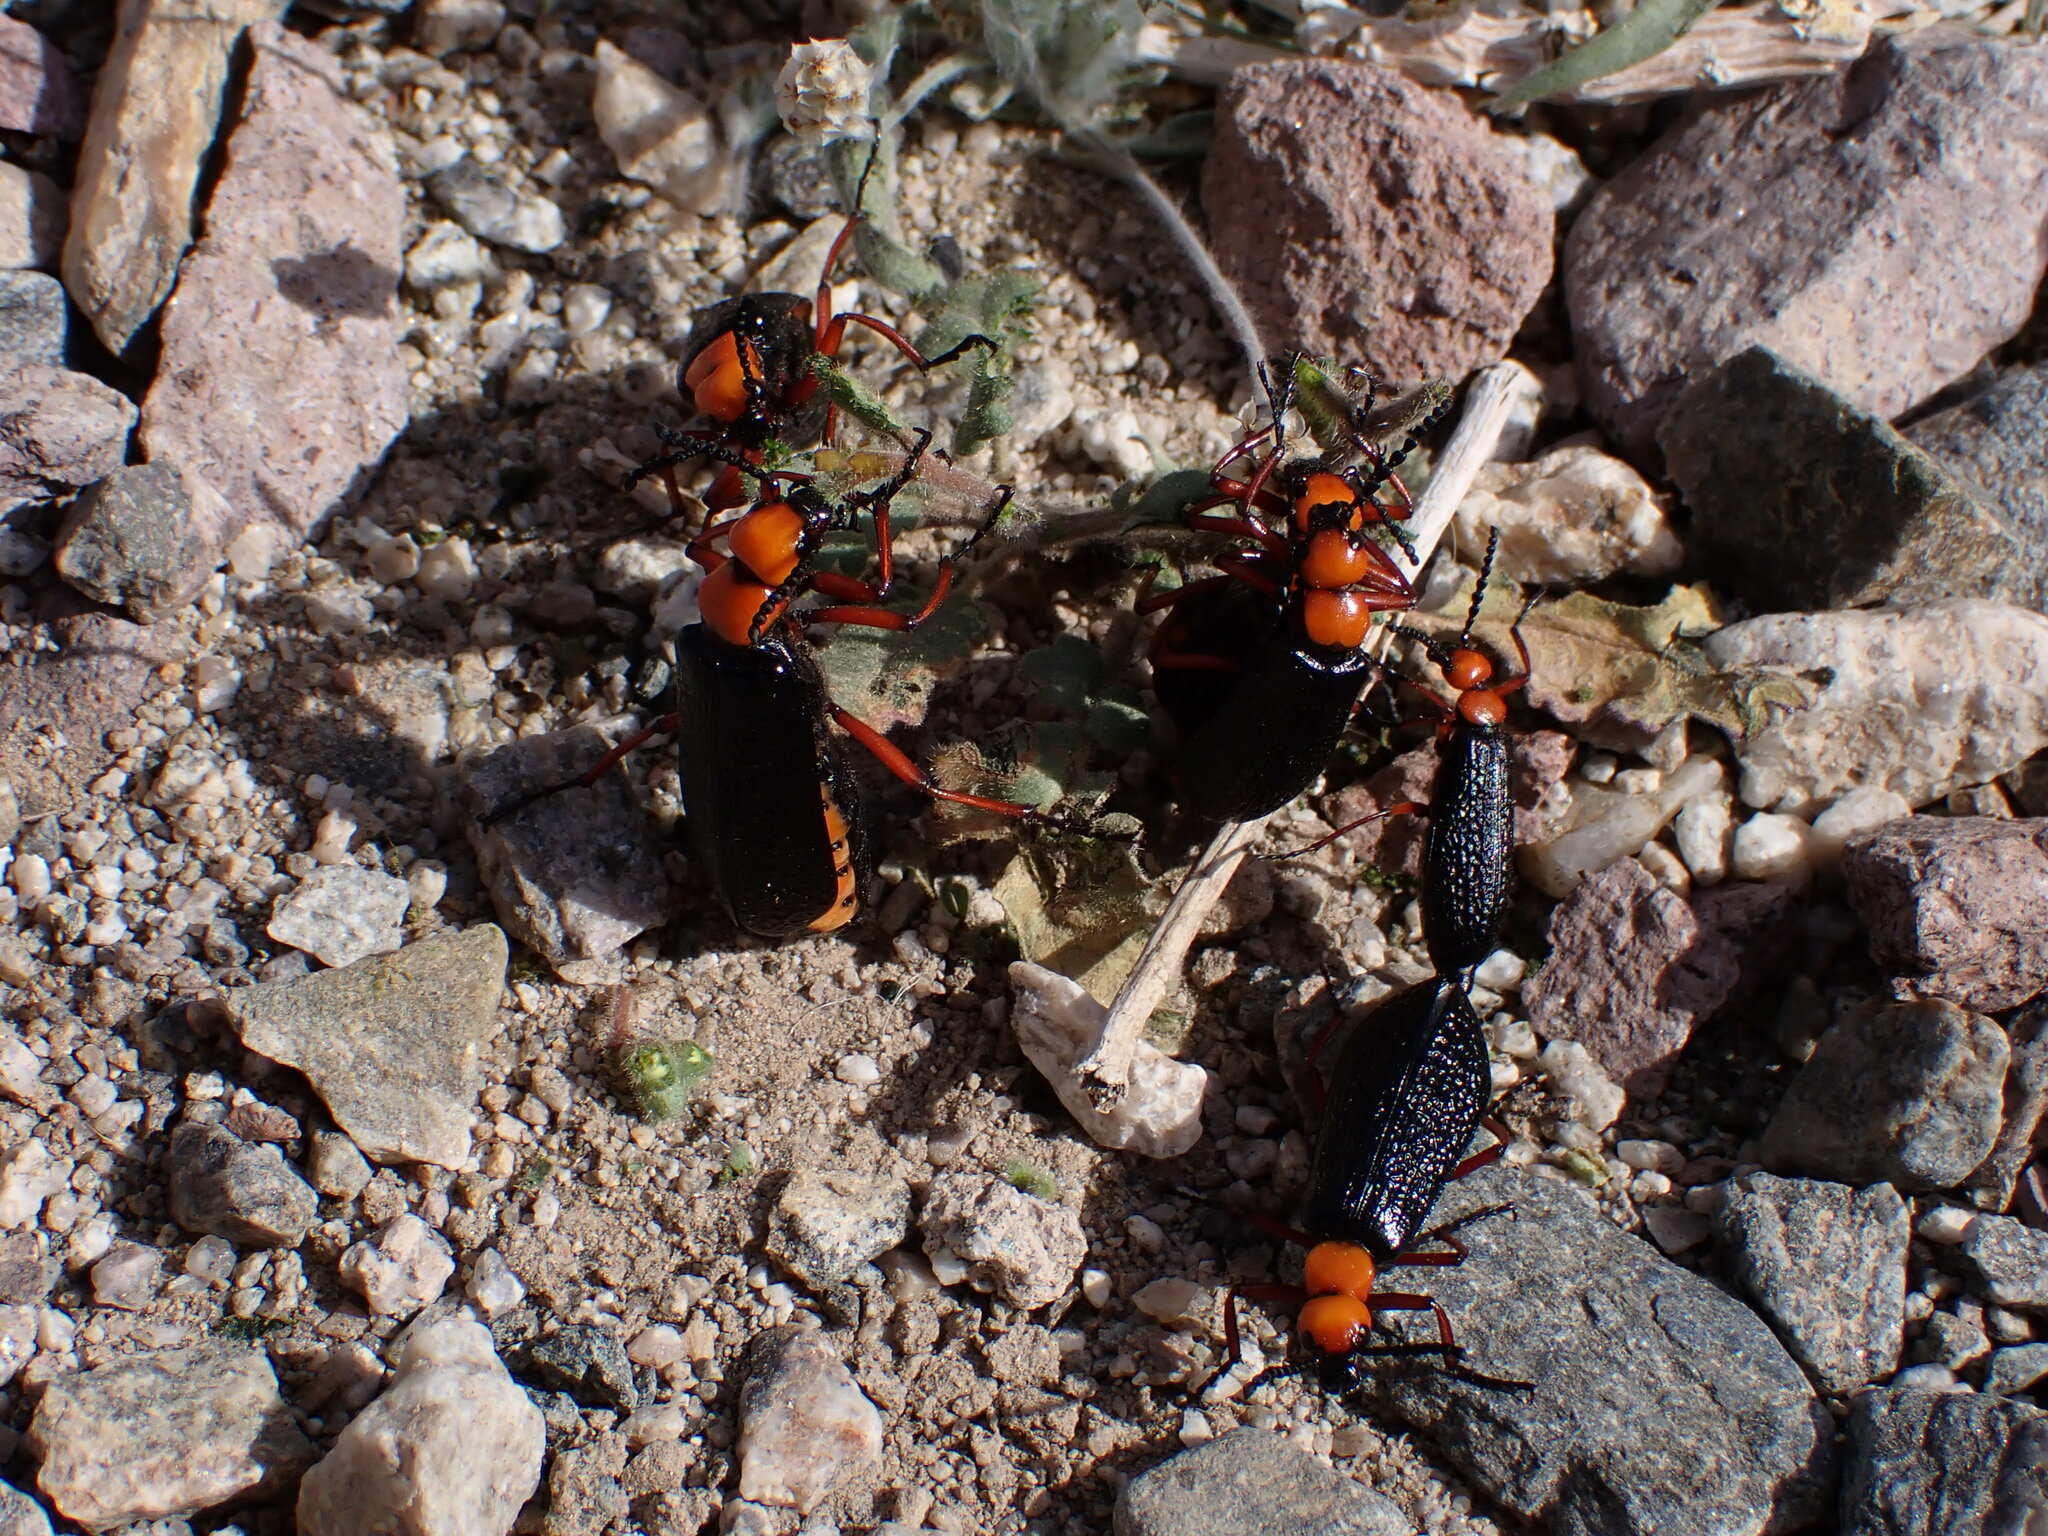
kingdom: Animalia
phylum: Arthropoda
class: Insecta
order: Coleoptera
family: Meloidae
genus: Lytta
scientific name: Lytta magister
